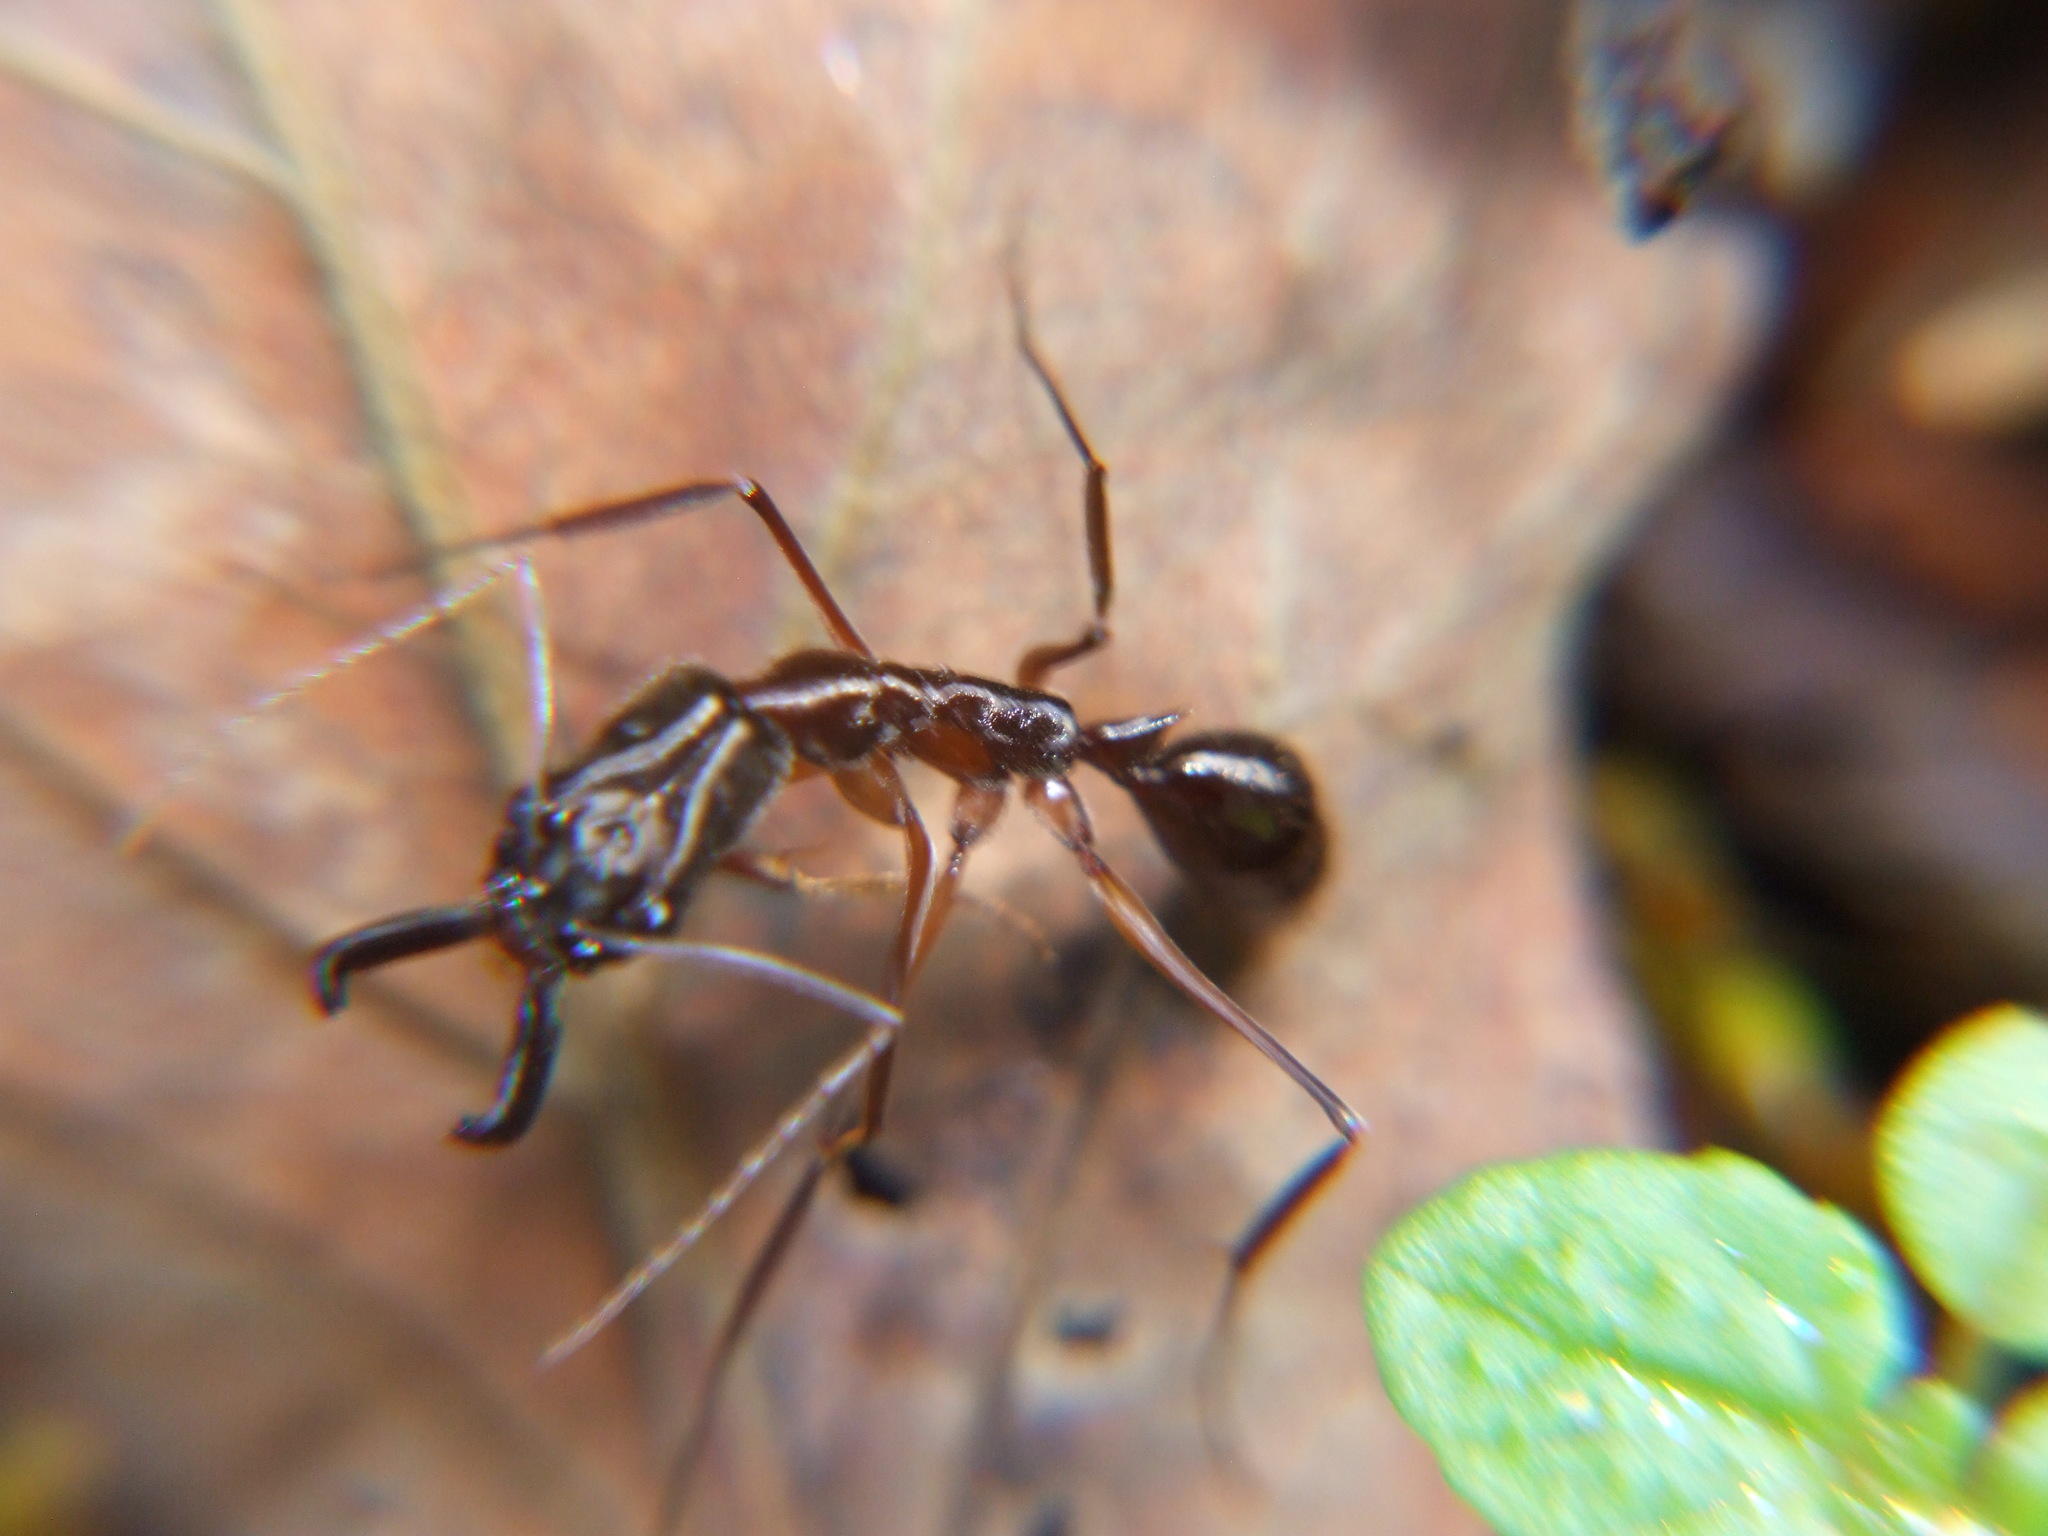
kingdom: Animalia
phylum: Arthropoda
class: Insecta
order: Hymenoptera
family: Formicidae
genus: Odontomachus
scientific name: Odontomachus chelifer
